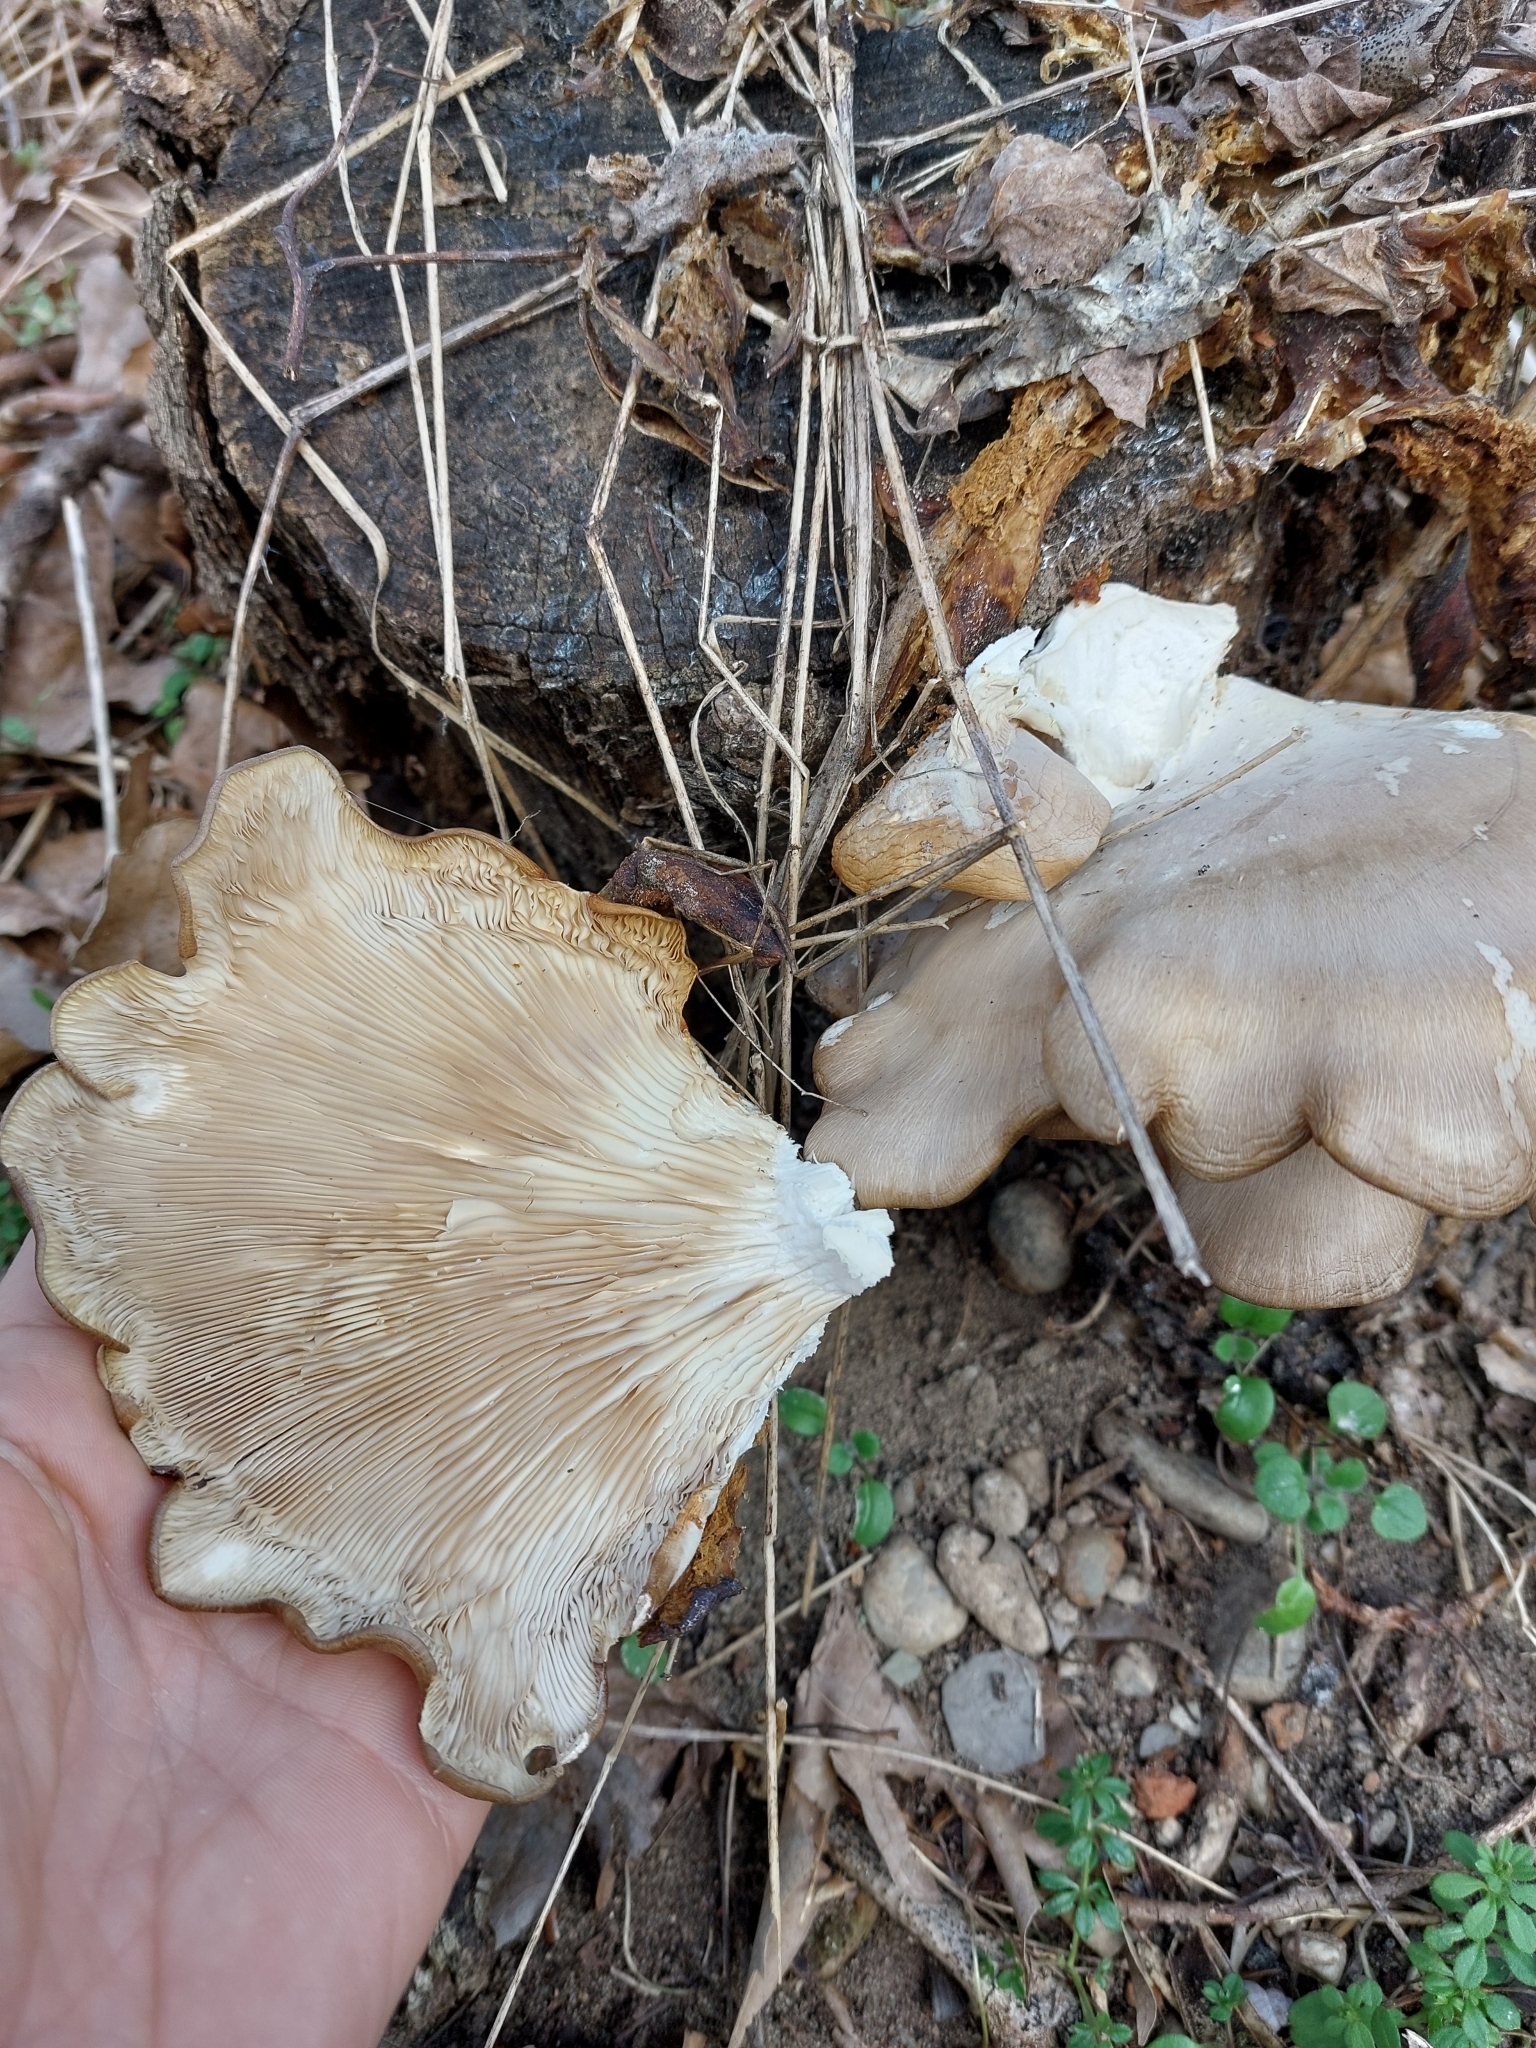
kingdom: Fungi
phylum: Basidiomycota
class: Agaricomycetes
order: Agaricales
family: Pleurotaceae
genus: Pleurotus
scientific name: Pleurotus ostreatus
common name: Oyster mushroom
